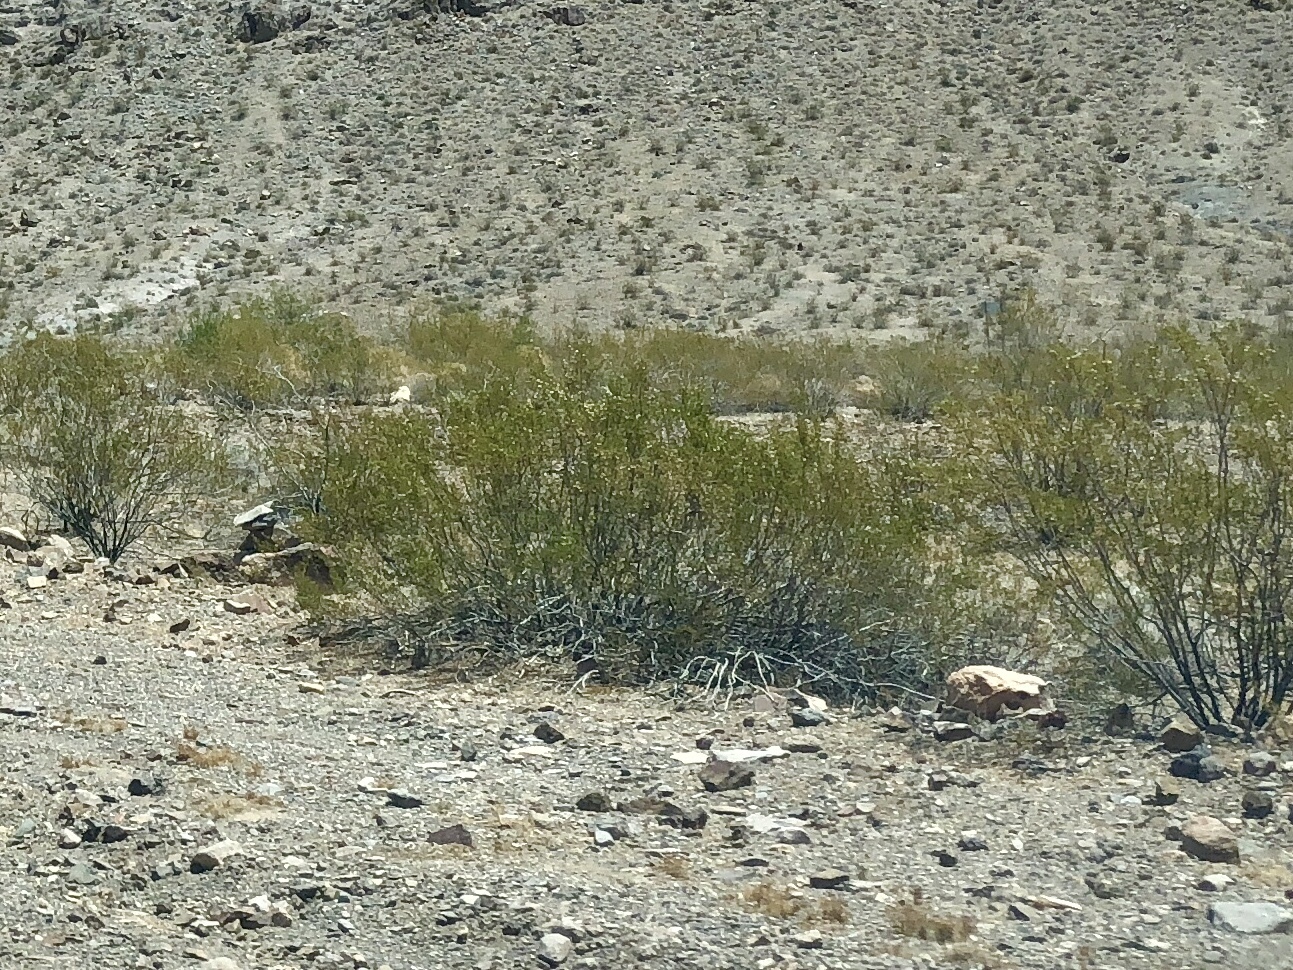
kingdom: Plantae
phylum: Tracheophyta
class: Magnoliopsida
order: Zygophyllales
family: Zygophyllaceae
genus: Larrea
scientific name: Larrea tridentata
